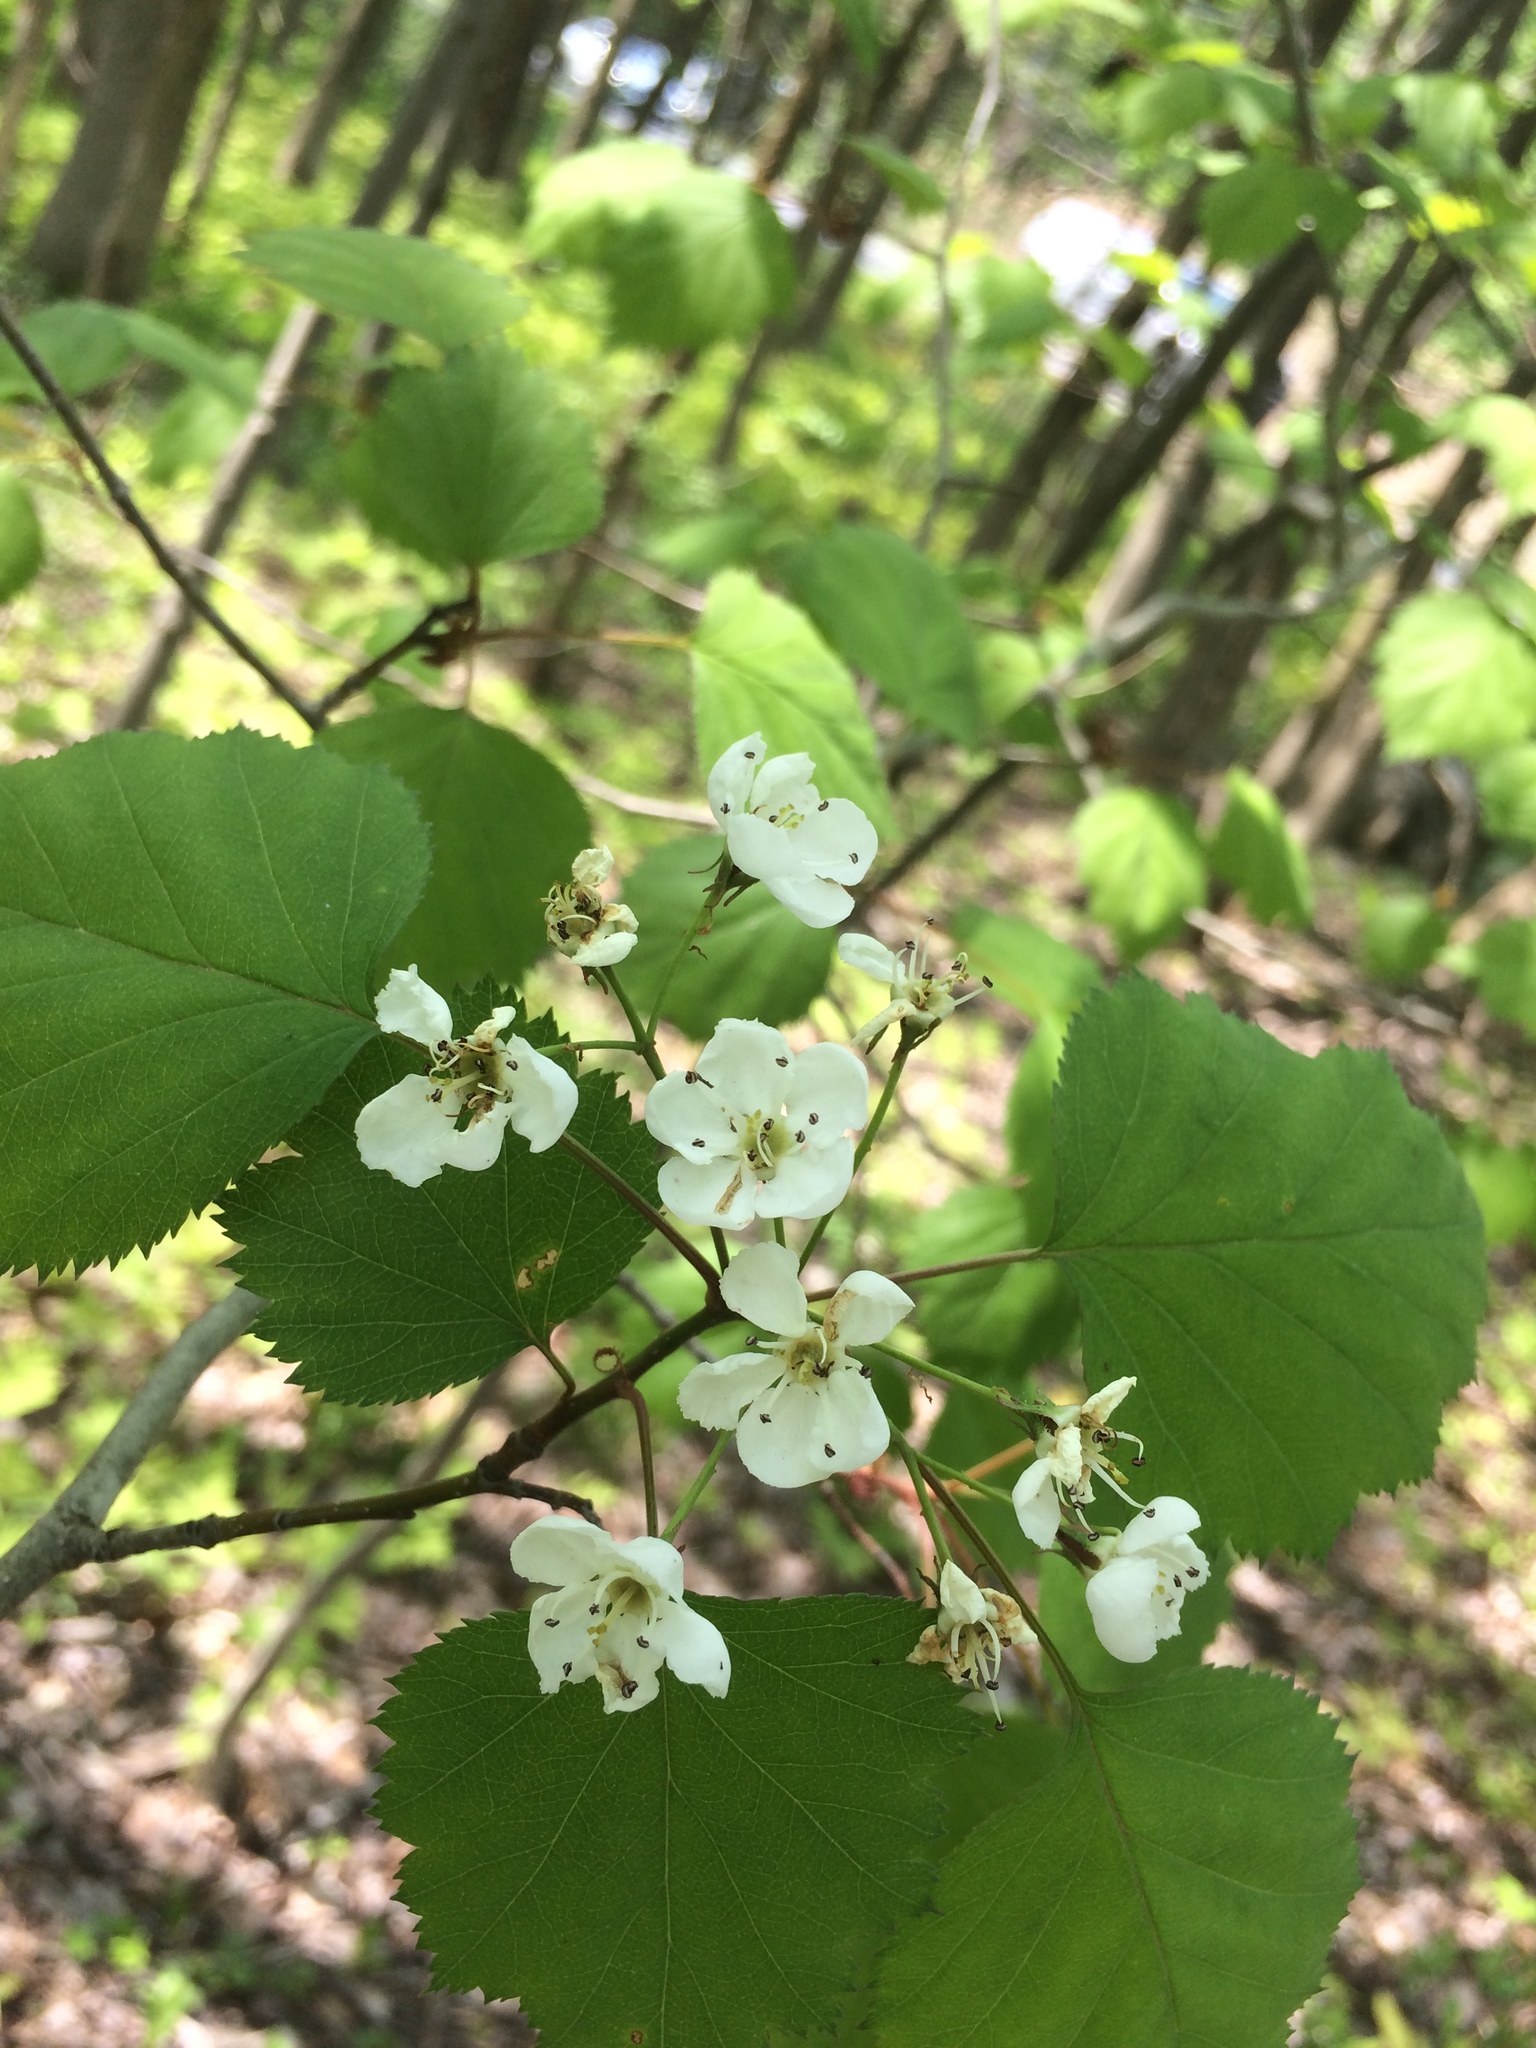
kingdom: Plantae
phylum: Tracheophyta
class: Magnoliopsida
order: Rosales
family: Rosaceae
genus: Crataegus
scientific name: Crataegus macrosperma
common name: Variable hawthorn
